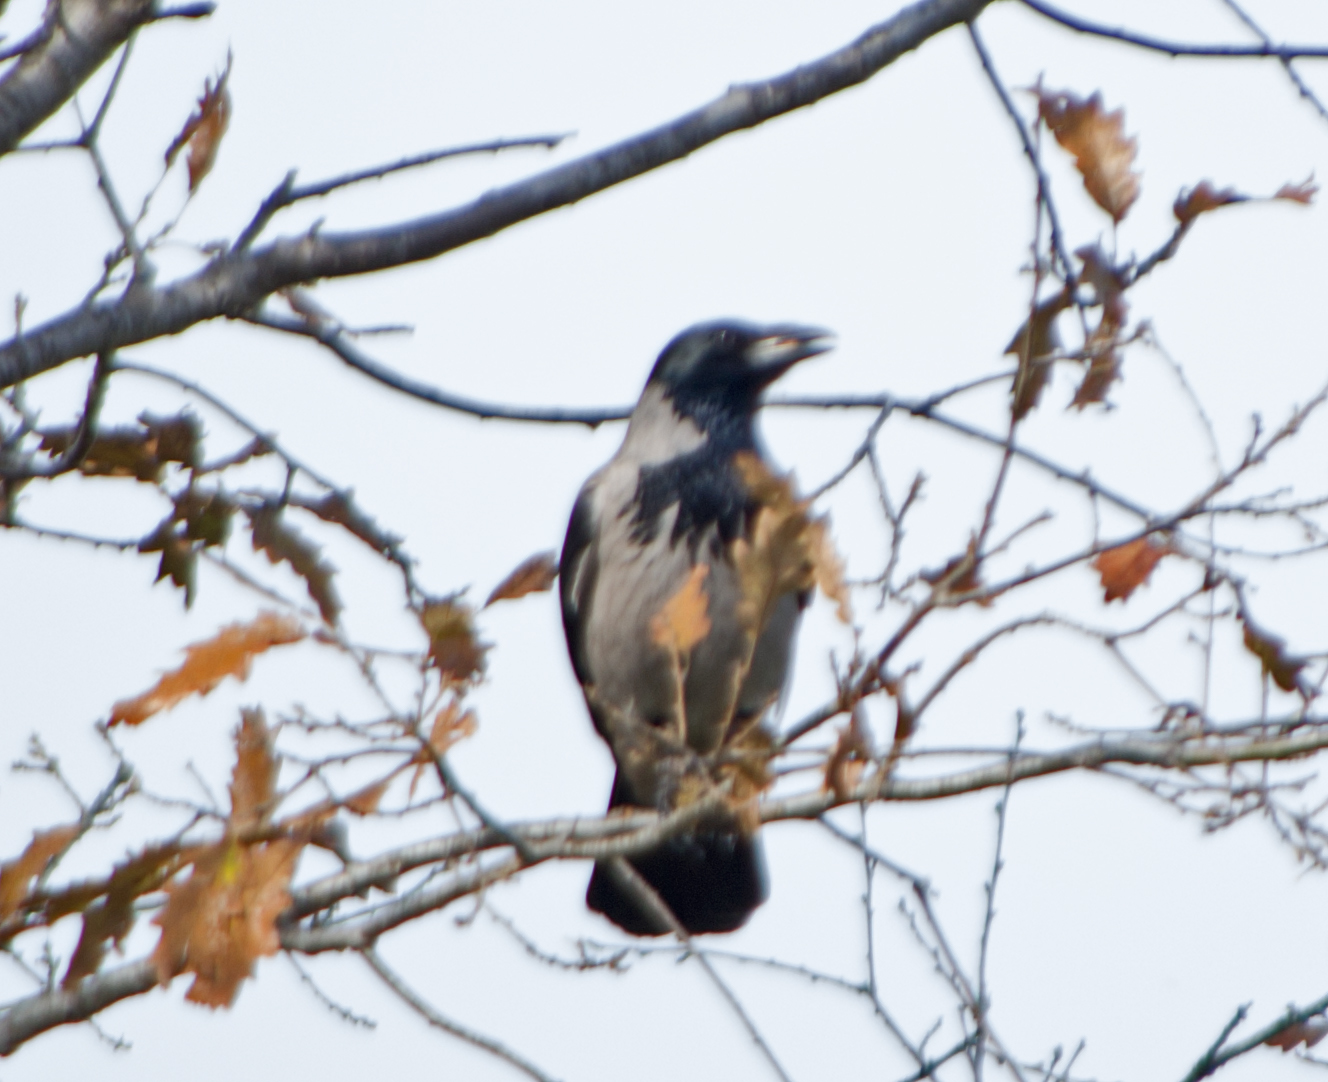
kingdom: Animalia
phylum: Chordata
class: Aves
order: Passeriformes
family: Corvidae
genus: Corvus
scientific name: Corvus cornix
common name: Hooded crow
